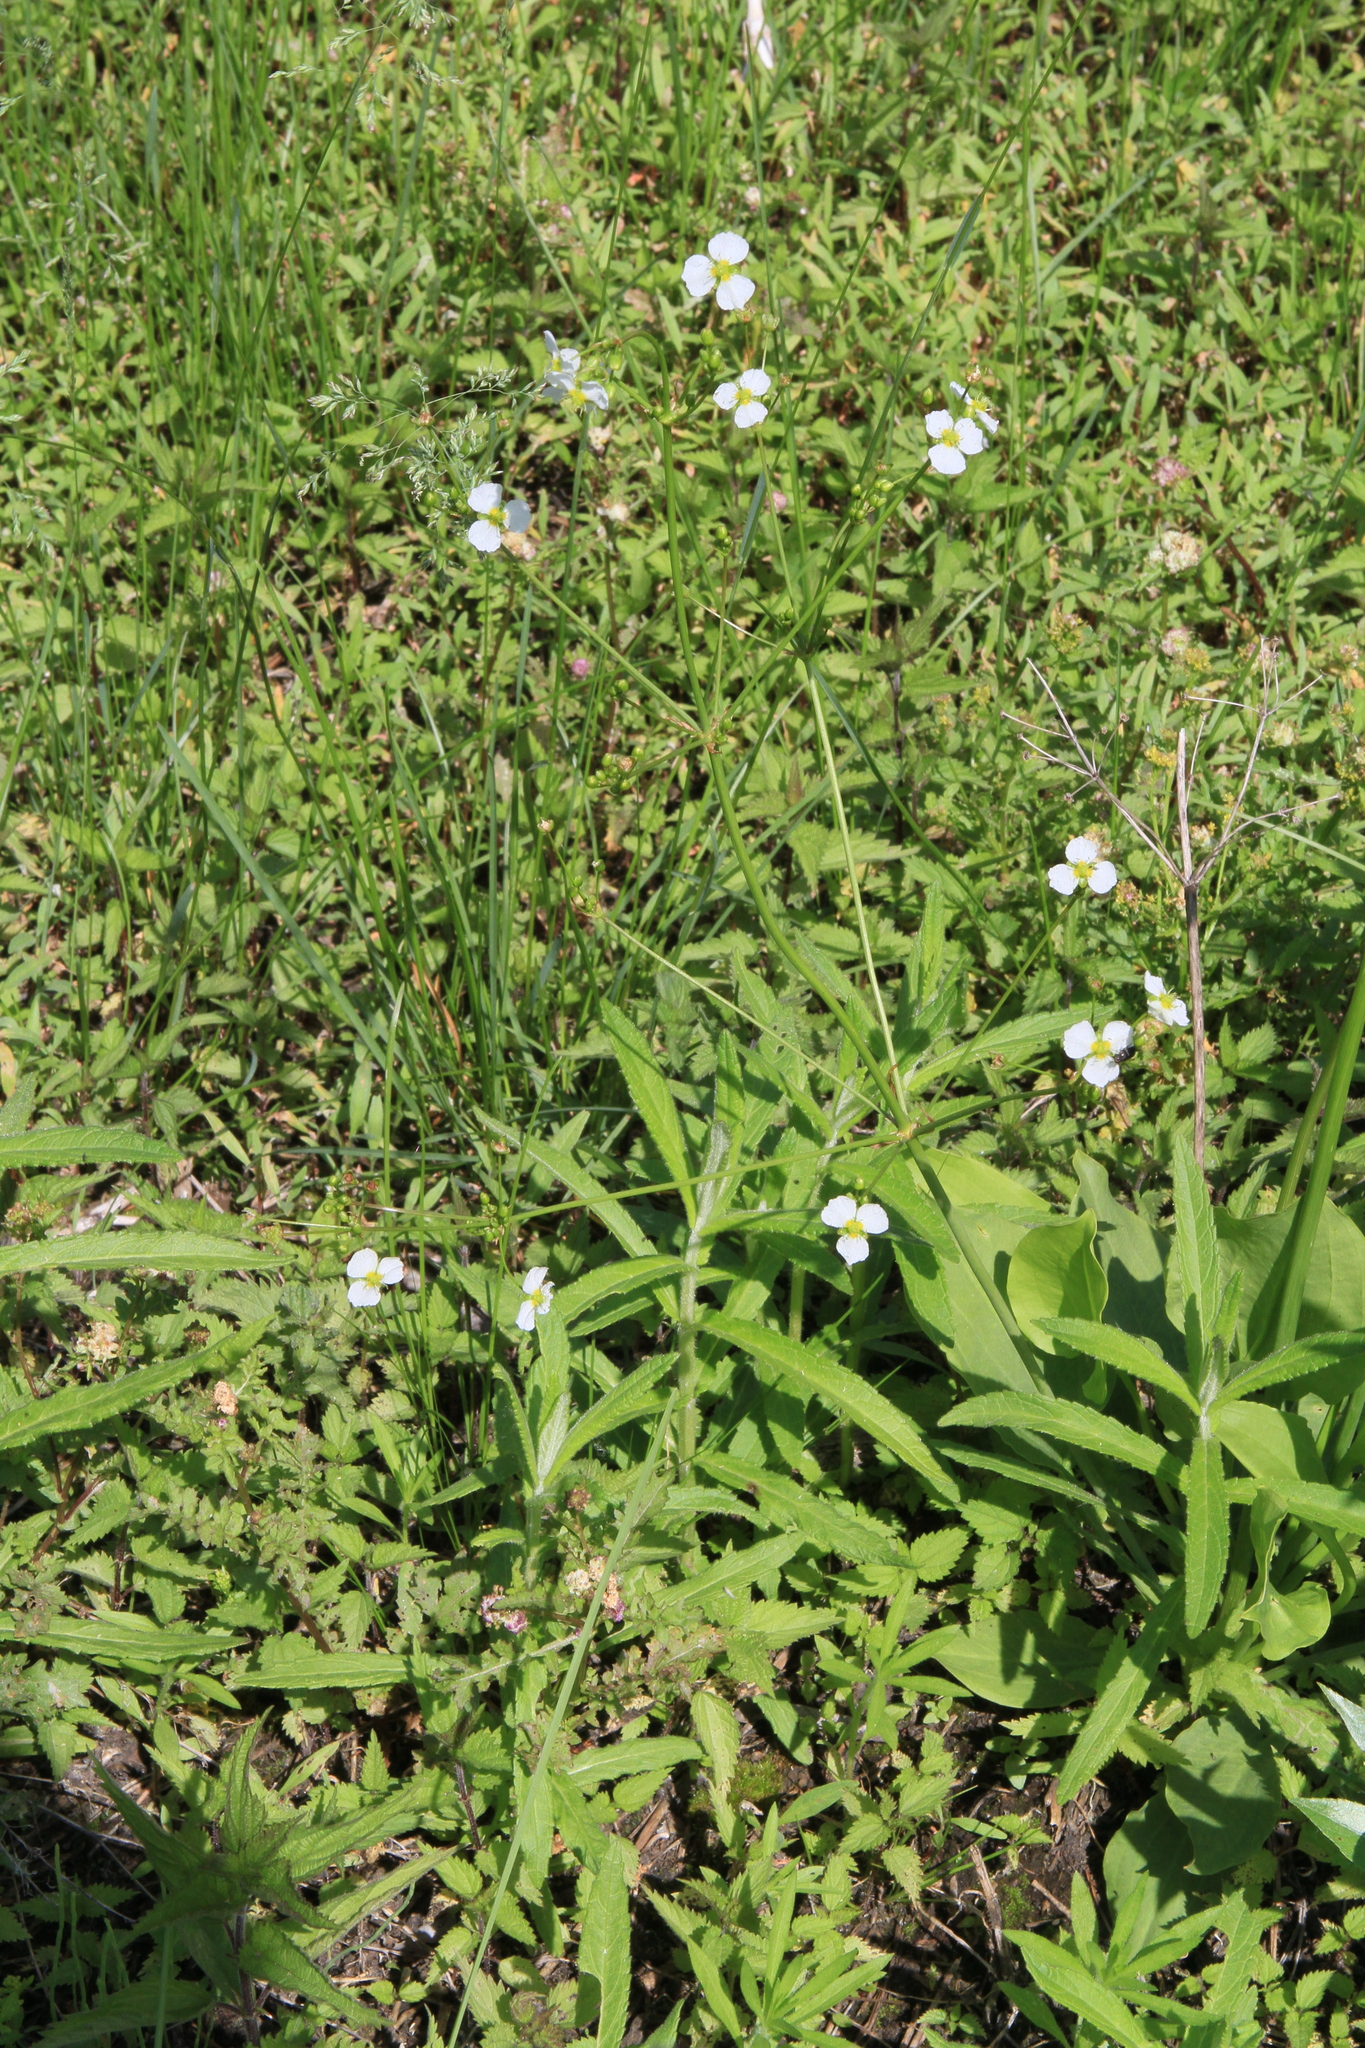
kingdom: Plantae
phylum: Tracheophyta
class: Liliopsida
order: Alismatales
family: Alismataceae
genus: Alisma
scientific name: Alisma plantago-aquatica
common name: Water-plantain
